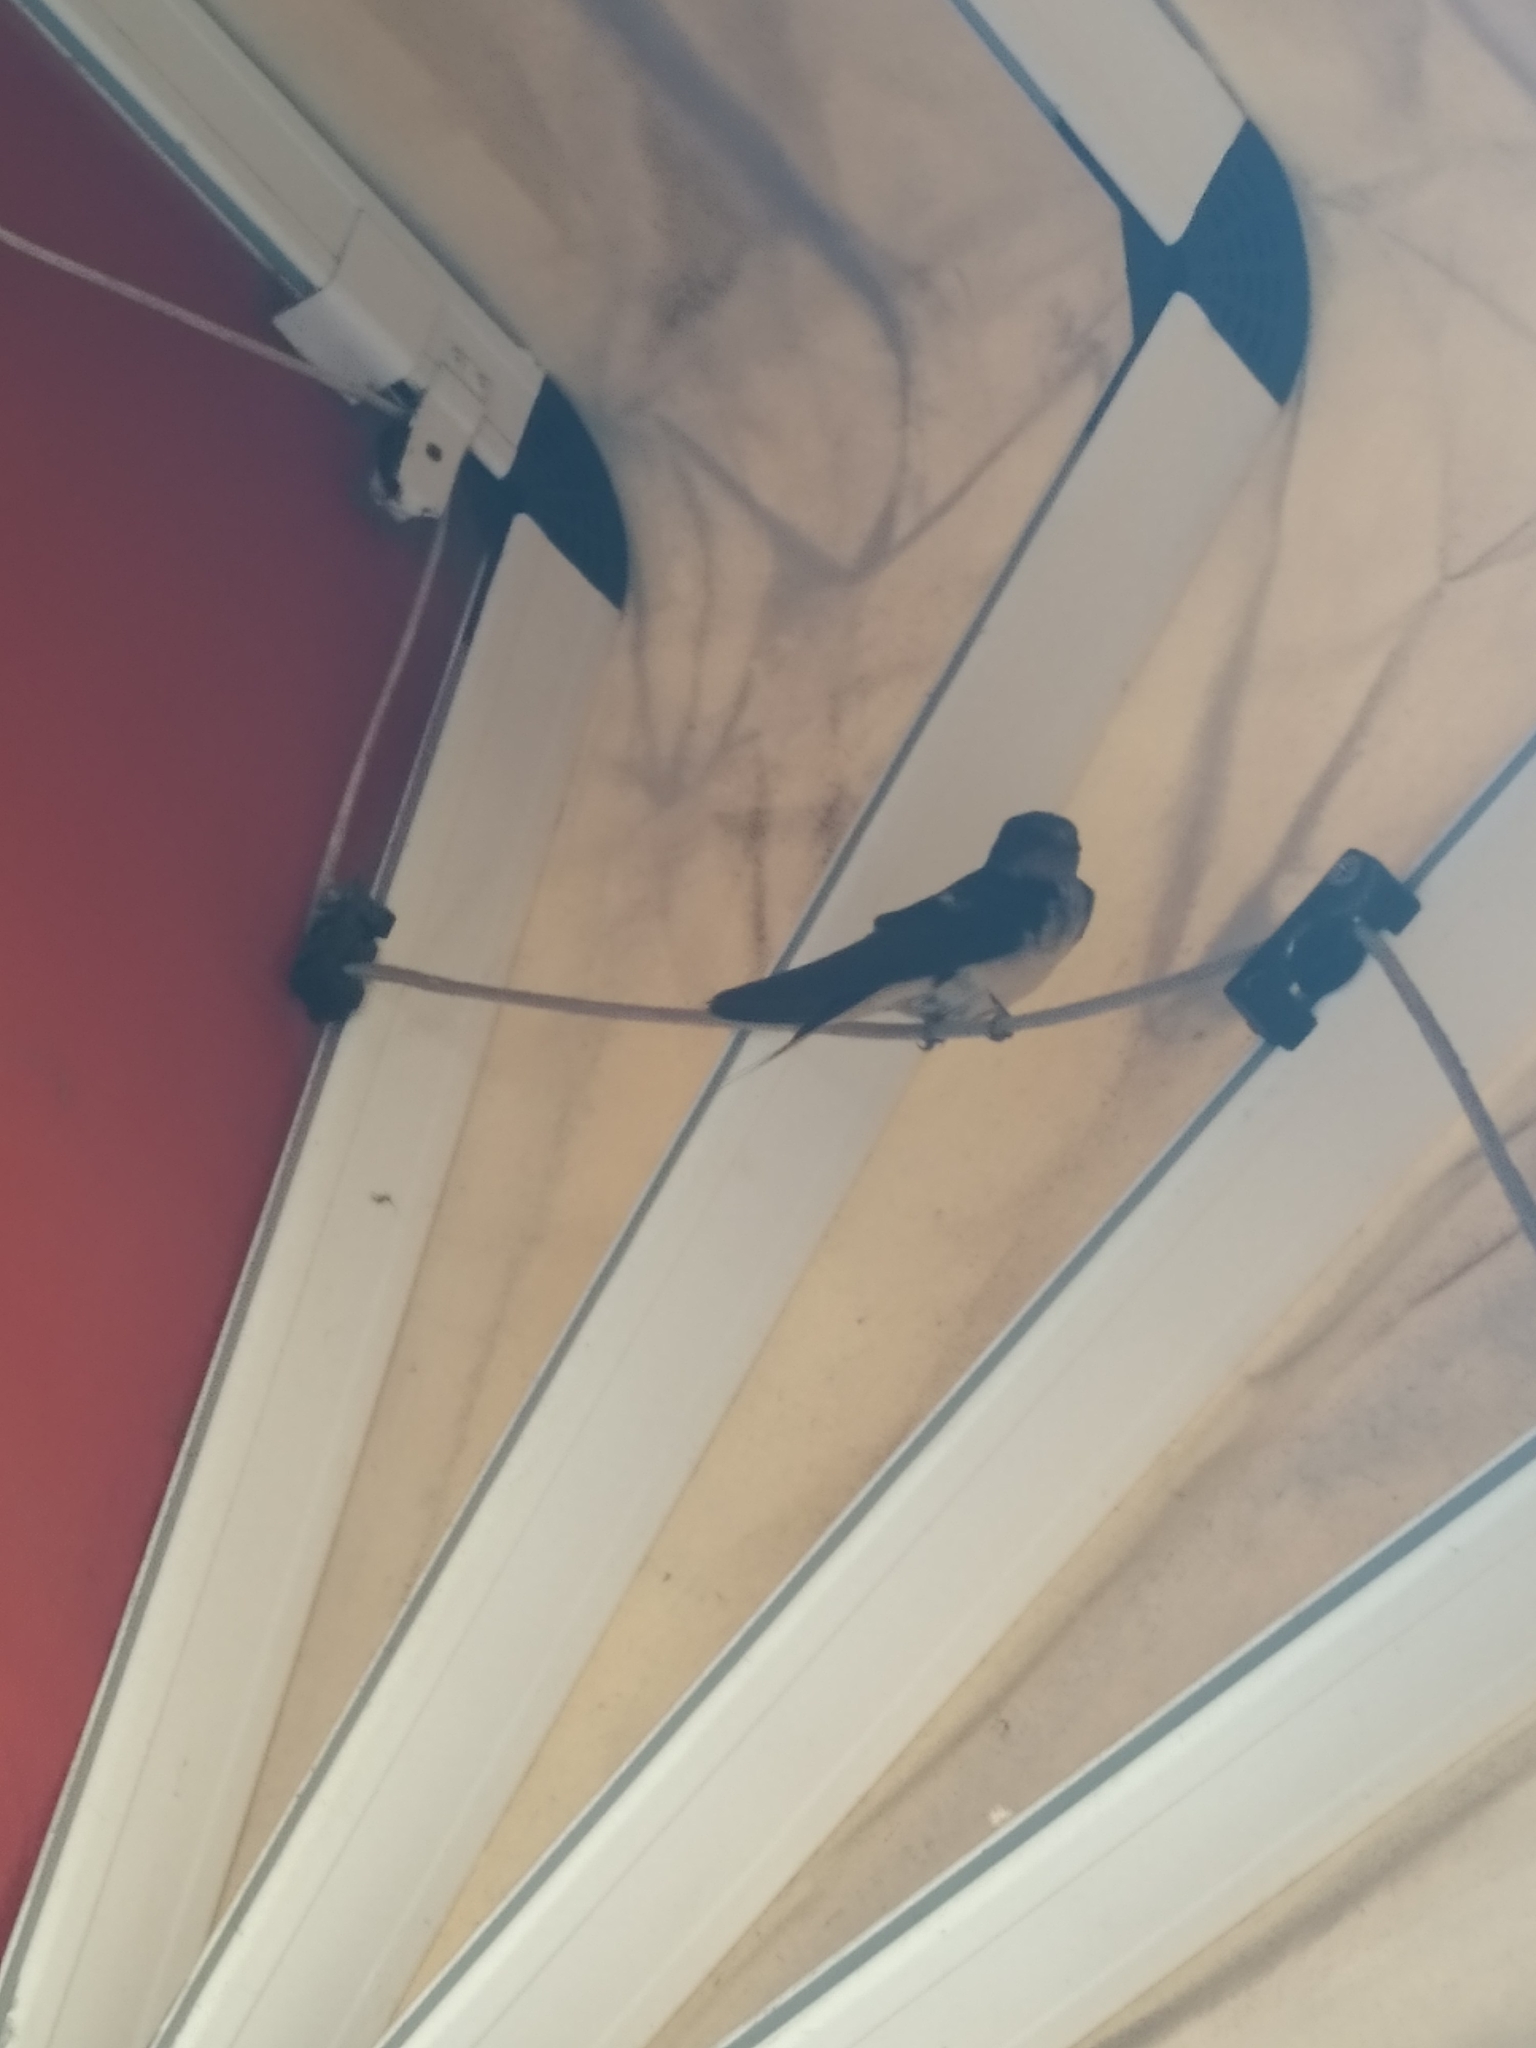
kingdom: Animalia
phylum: Chordata
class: Aves
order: Passeriformes
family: Hirundinidae
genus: Hirundo
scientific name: Hirundo rustica
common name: Barn swallow
